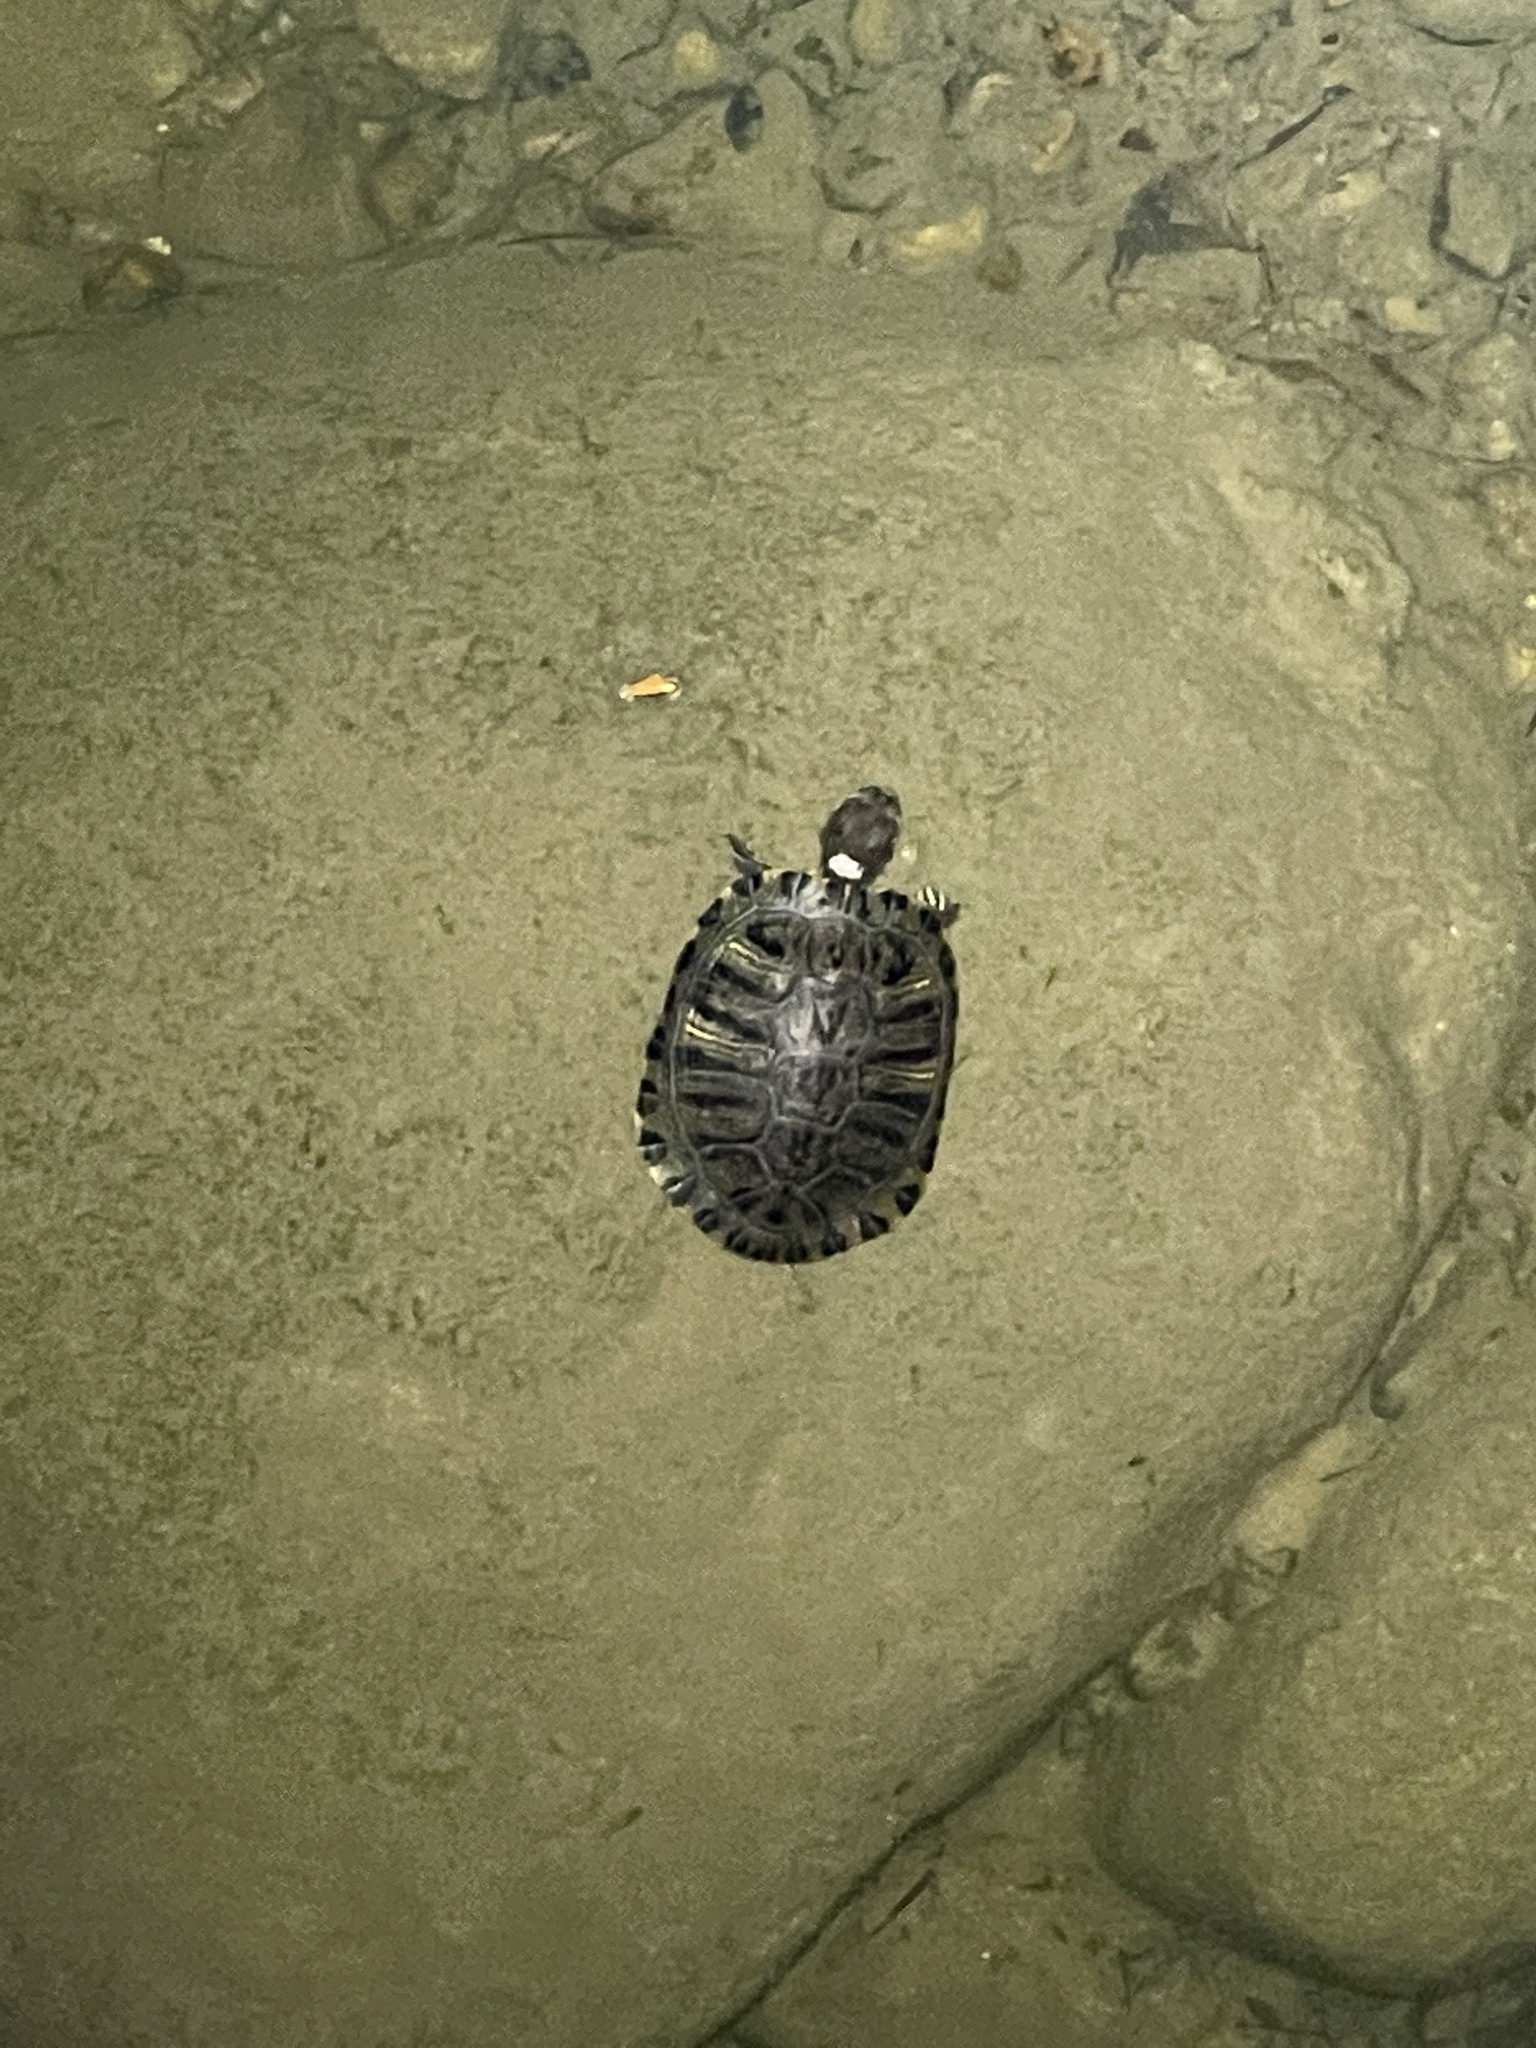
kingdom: Animalia
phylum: Chordata
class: Testudines
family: Emydidae
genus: Trachemys
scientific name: Trachemys scripta
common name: Slider
